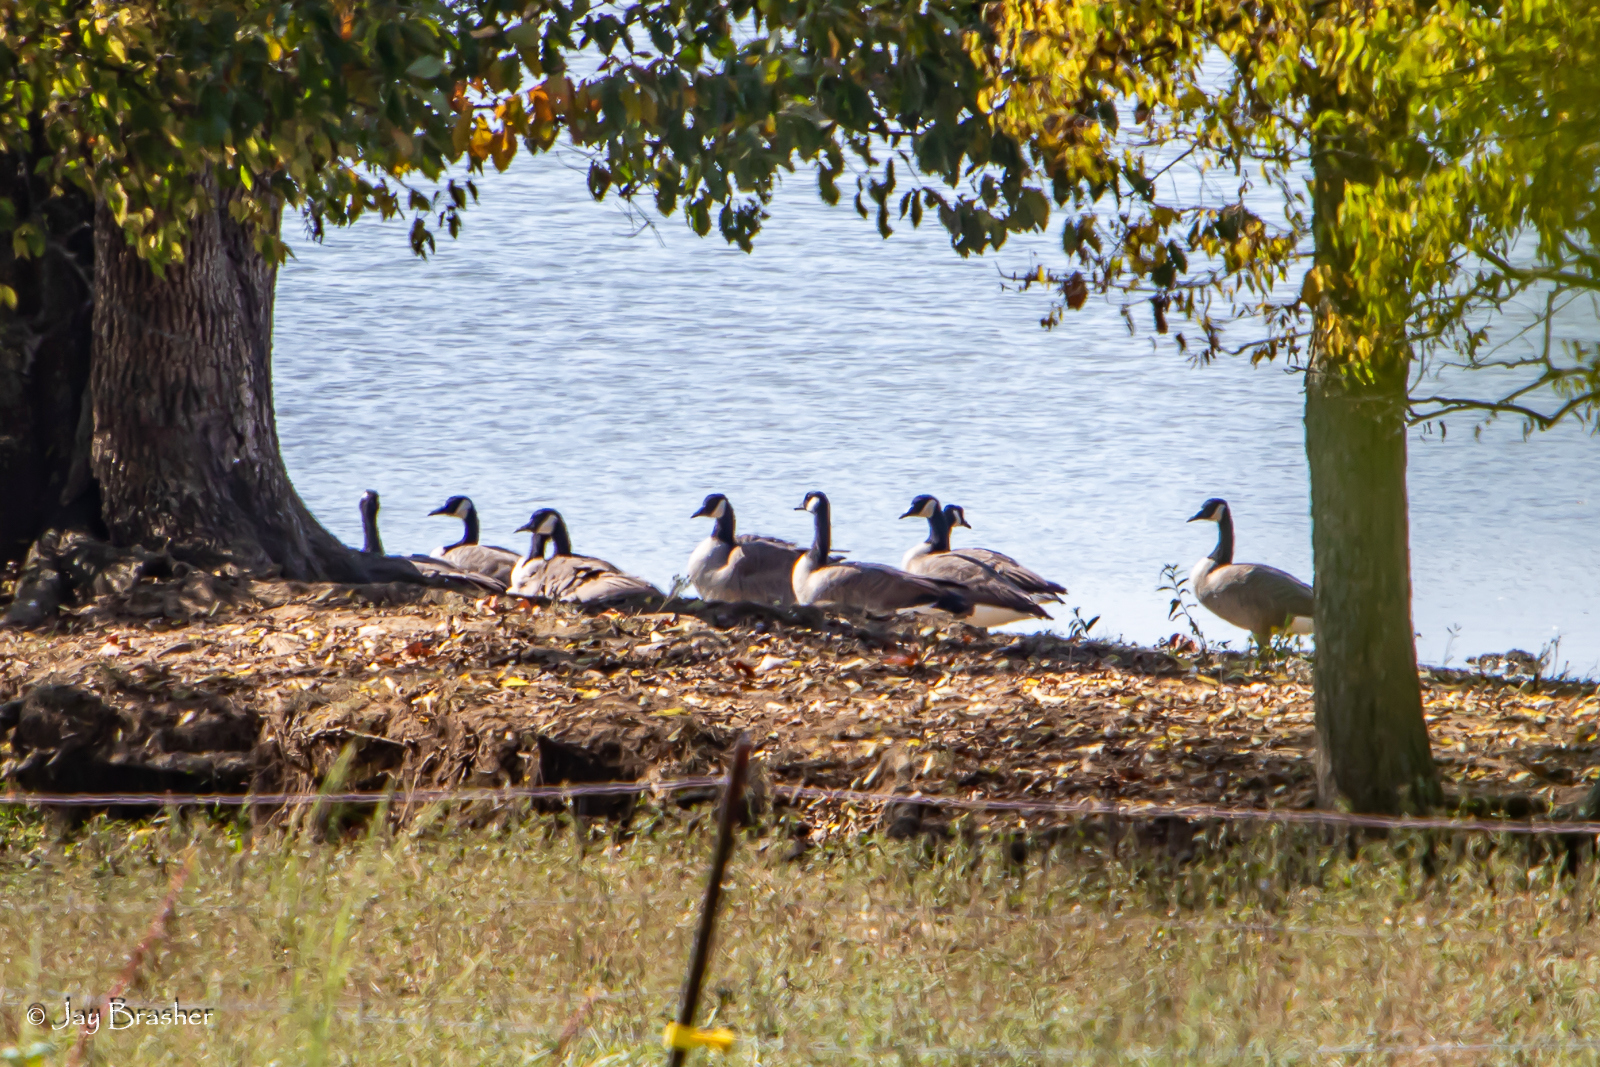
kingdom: Animalia
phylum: Chordata
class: Aves
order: Anseriformes
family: Anatidae
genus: Branta
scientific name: Branta canadensis
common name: Canada goose
